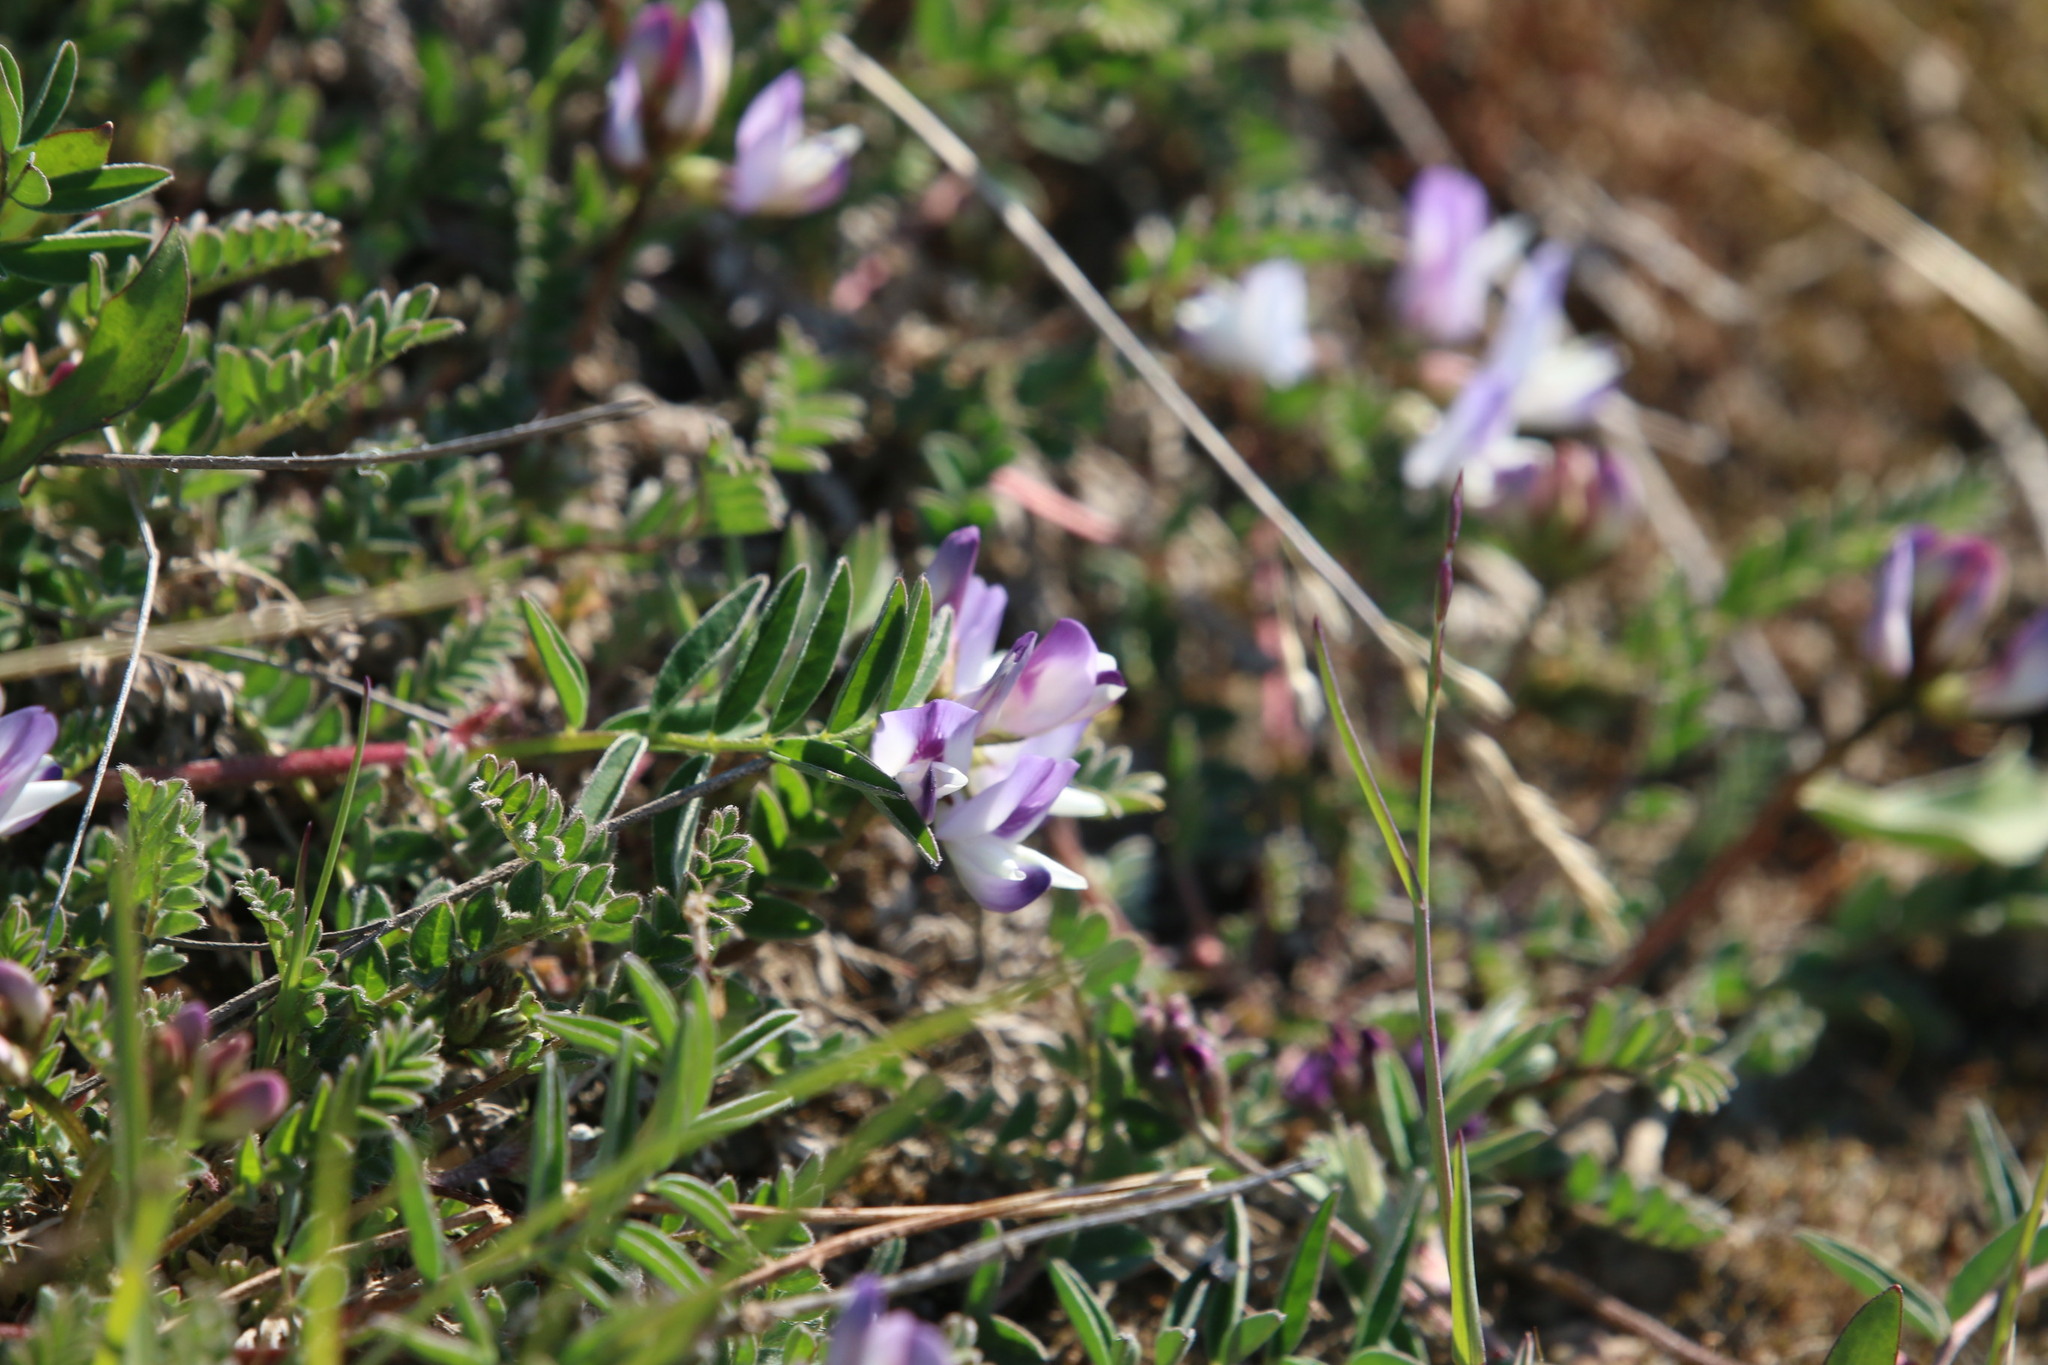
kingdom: Plantae
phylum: Tracheophyta
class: Magnoliopsida
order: Fabales
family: Fabaceae
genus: Astragalus
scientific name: Astragalus alpinus
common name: Alpine milk-vetch
